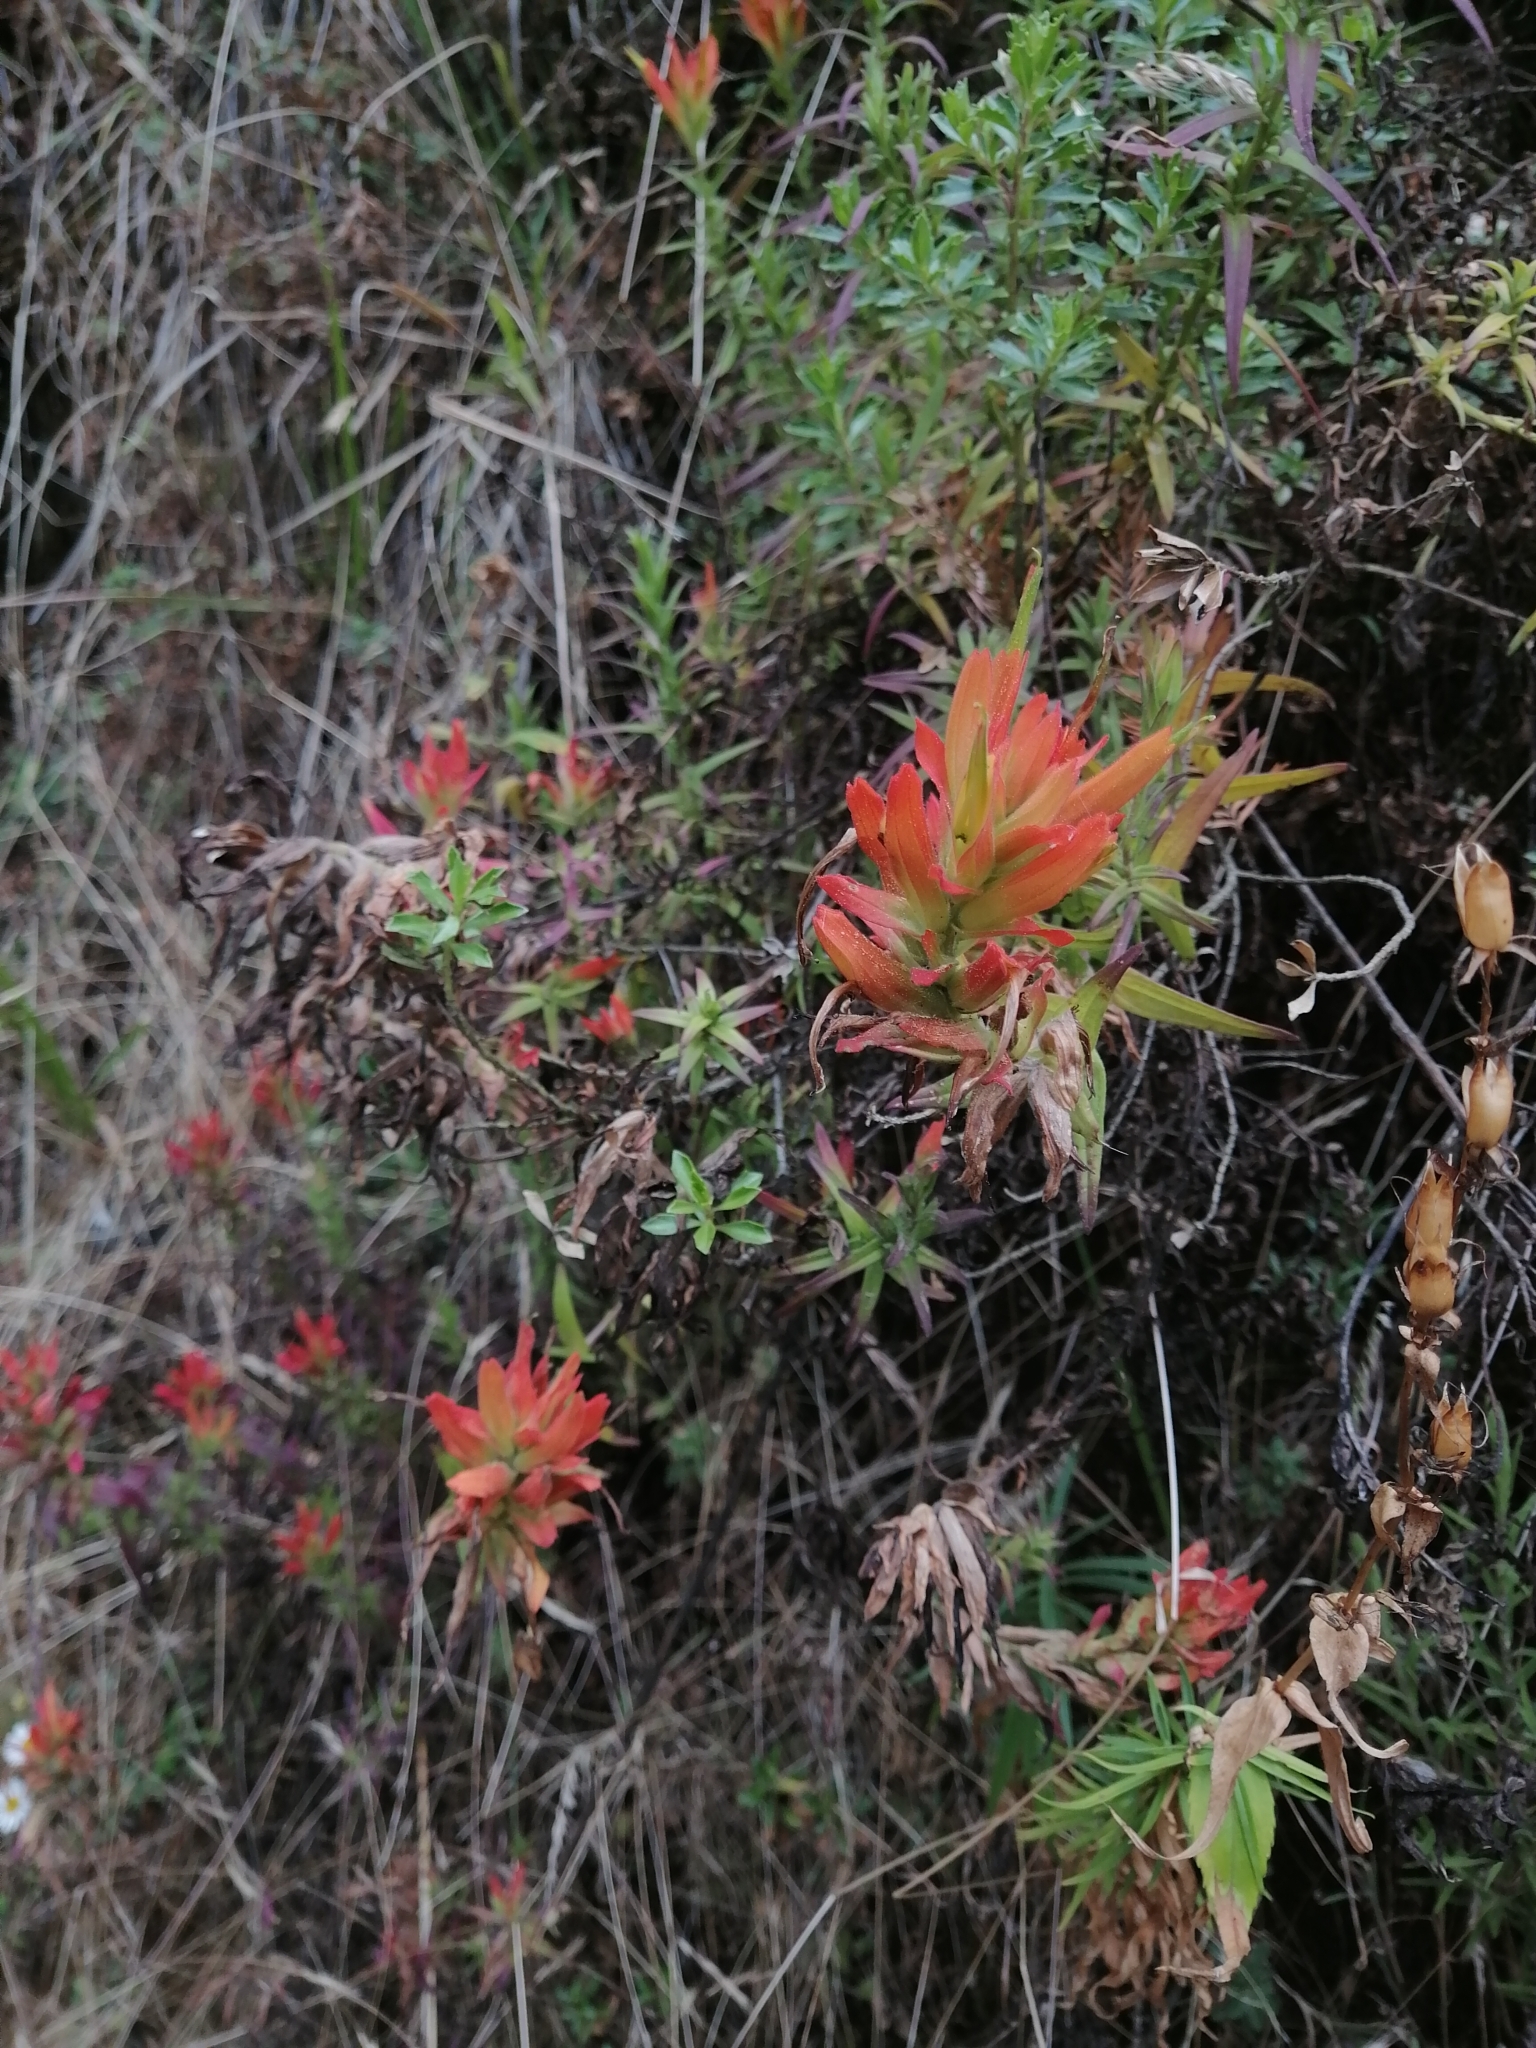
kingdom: Plantae
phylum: Tracheophyta
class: Magnoliopsida
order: Lamiales
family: Orobanchaceae
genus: Castilleja
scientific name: Castilleja tenuiflora
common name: Santa catalina indian paintbrush
